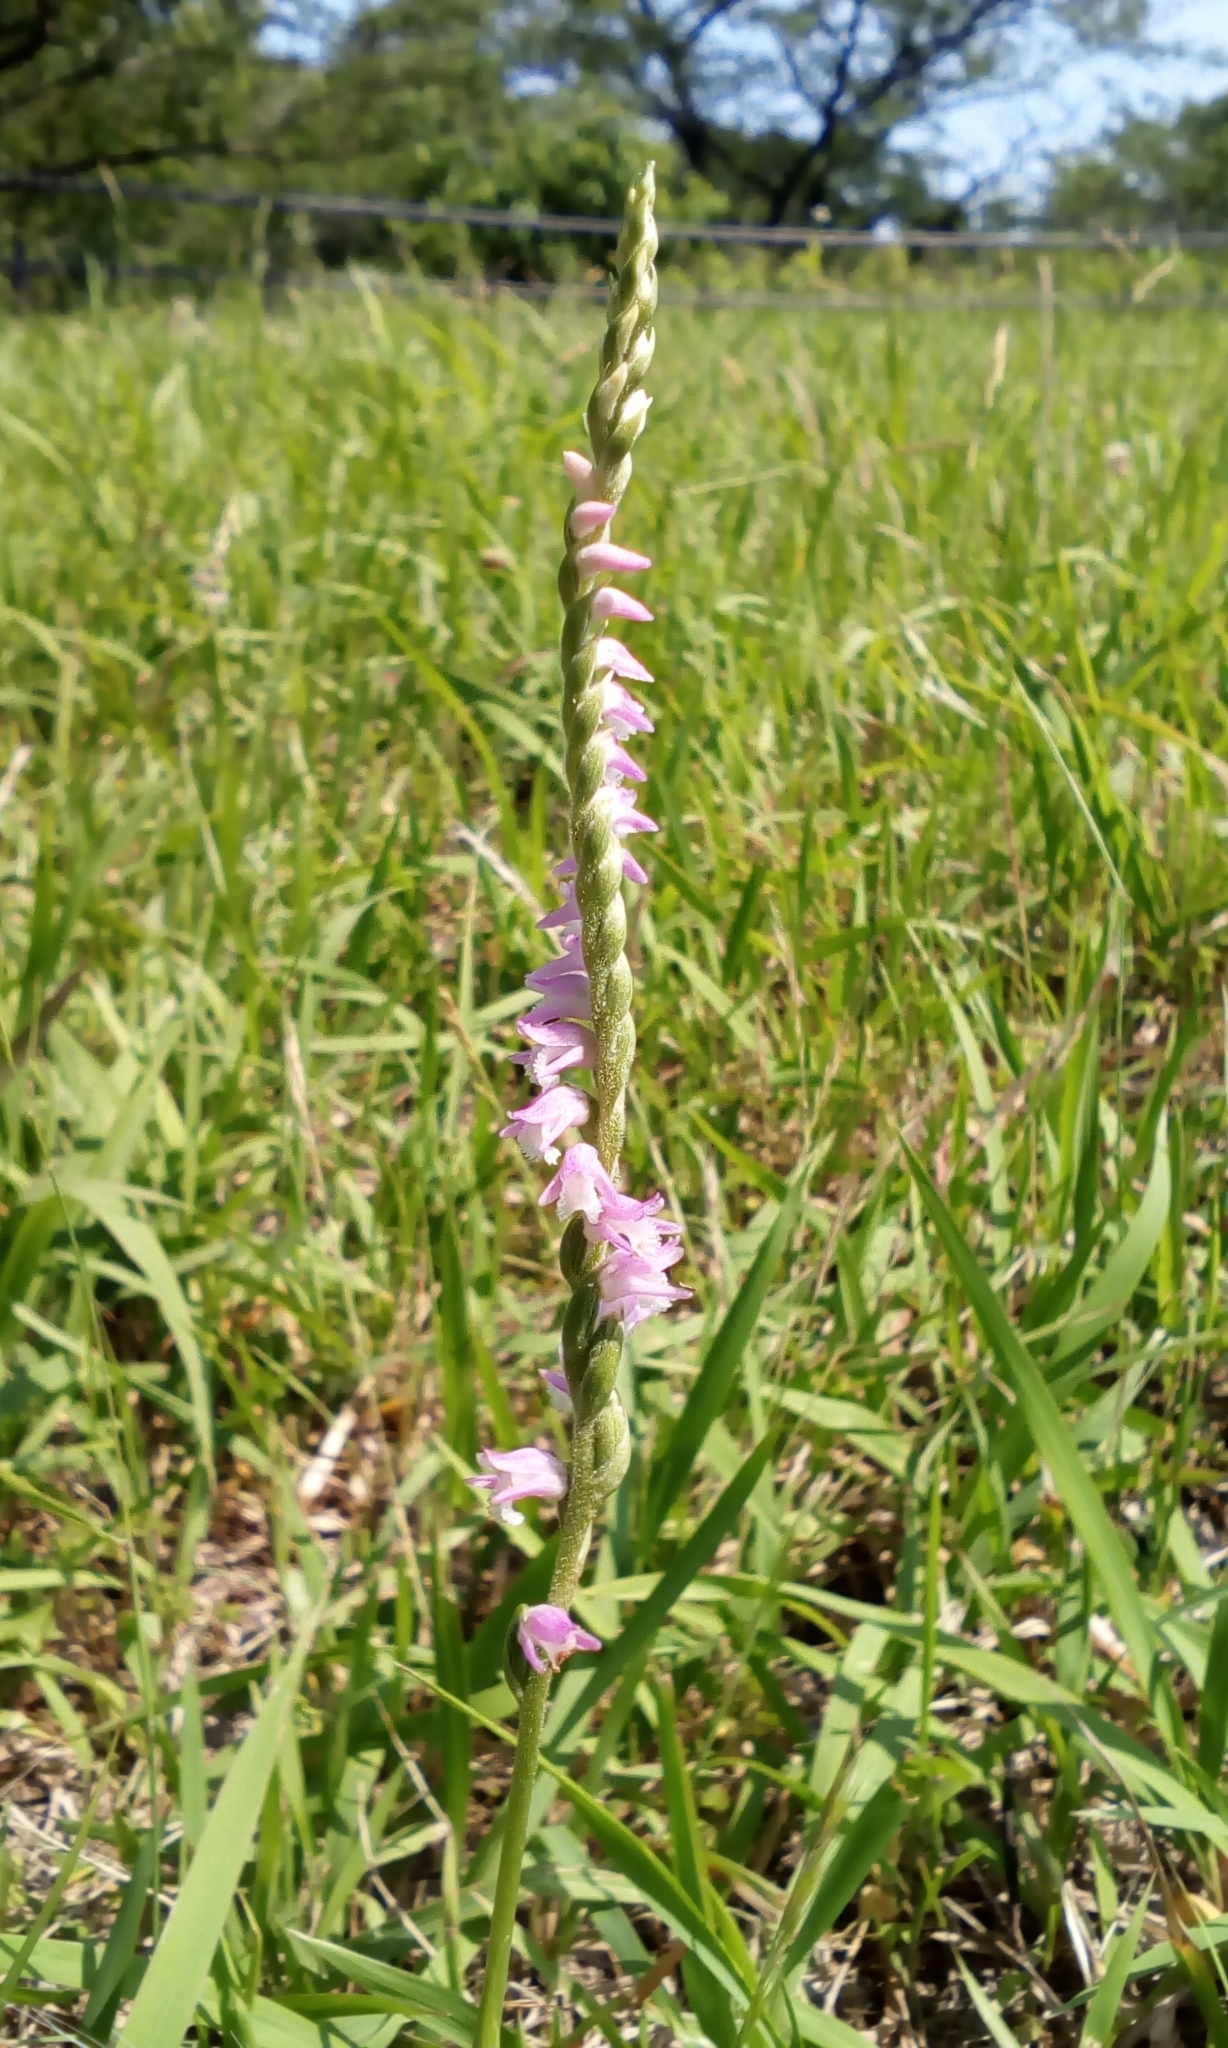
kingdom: Plantae
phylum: Tracheophyta
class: Liliopsida
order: Asparagales
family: Orchidaceae
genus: Spiranthes
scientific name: Spiranthes australis
